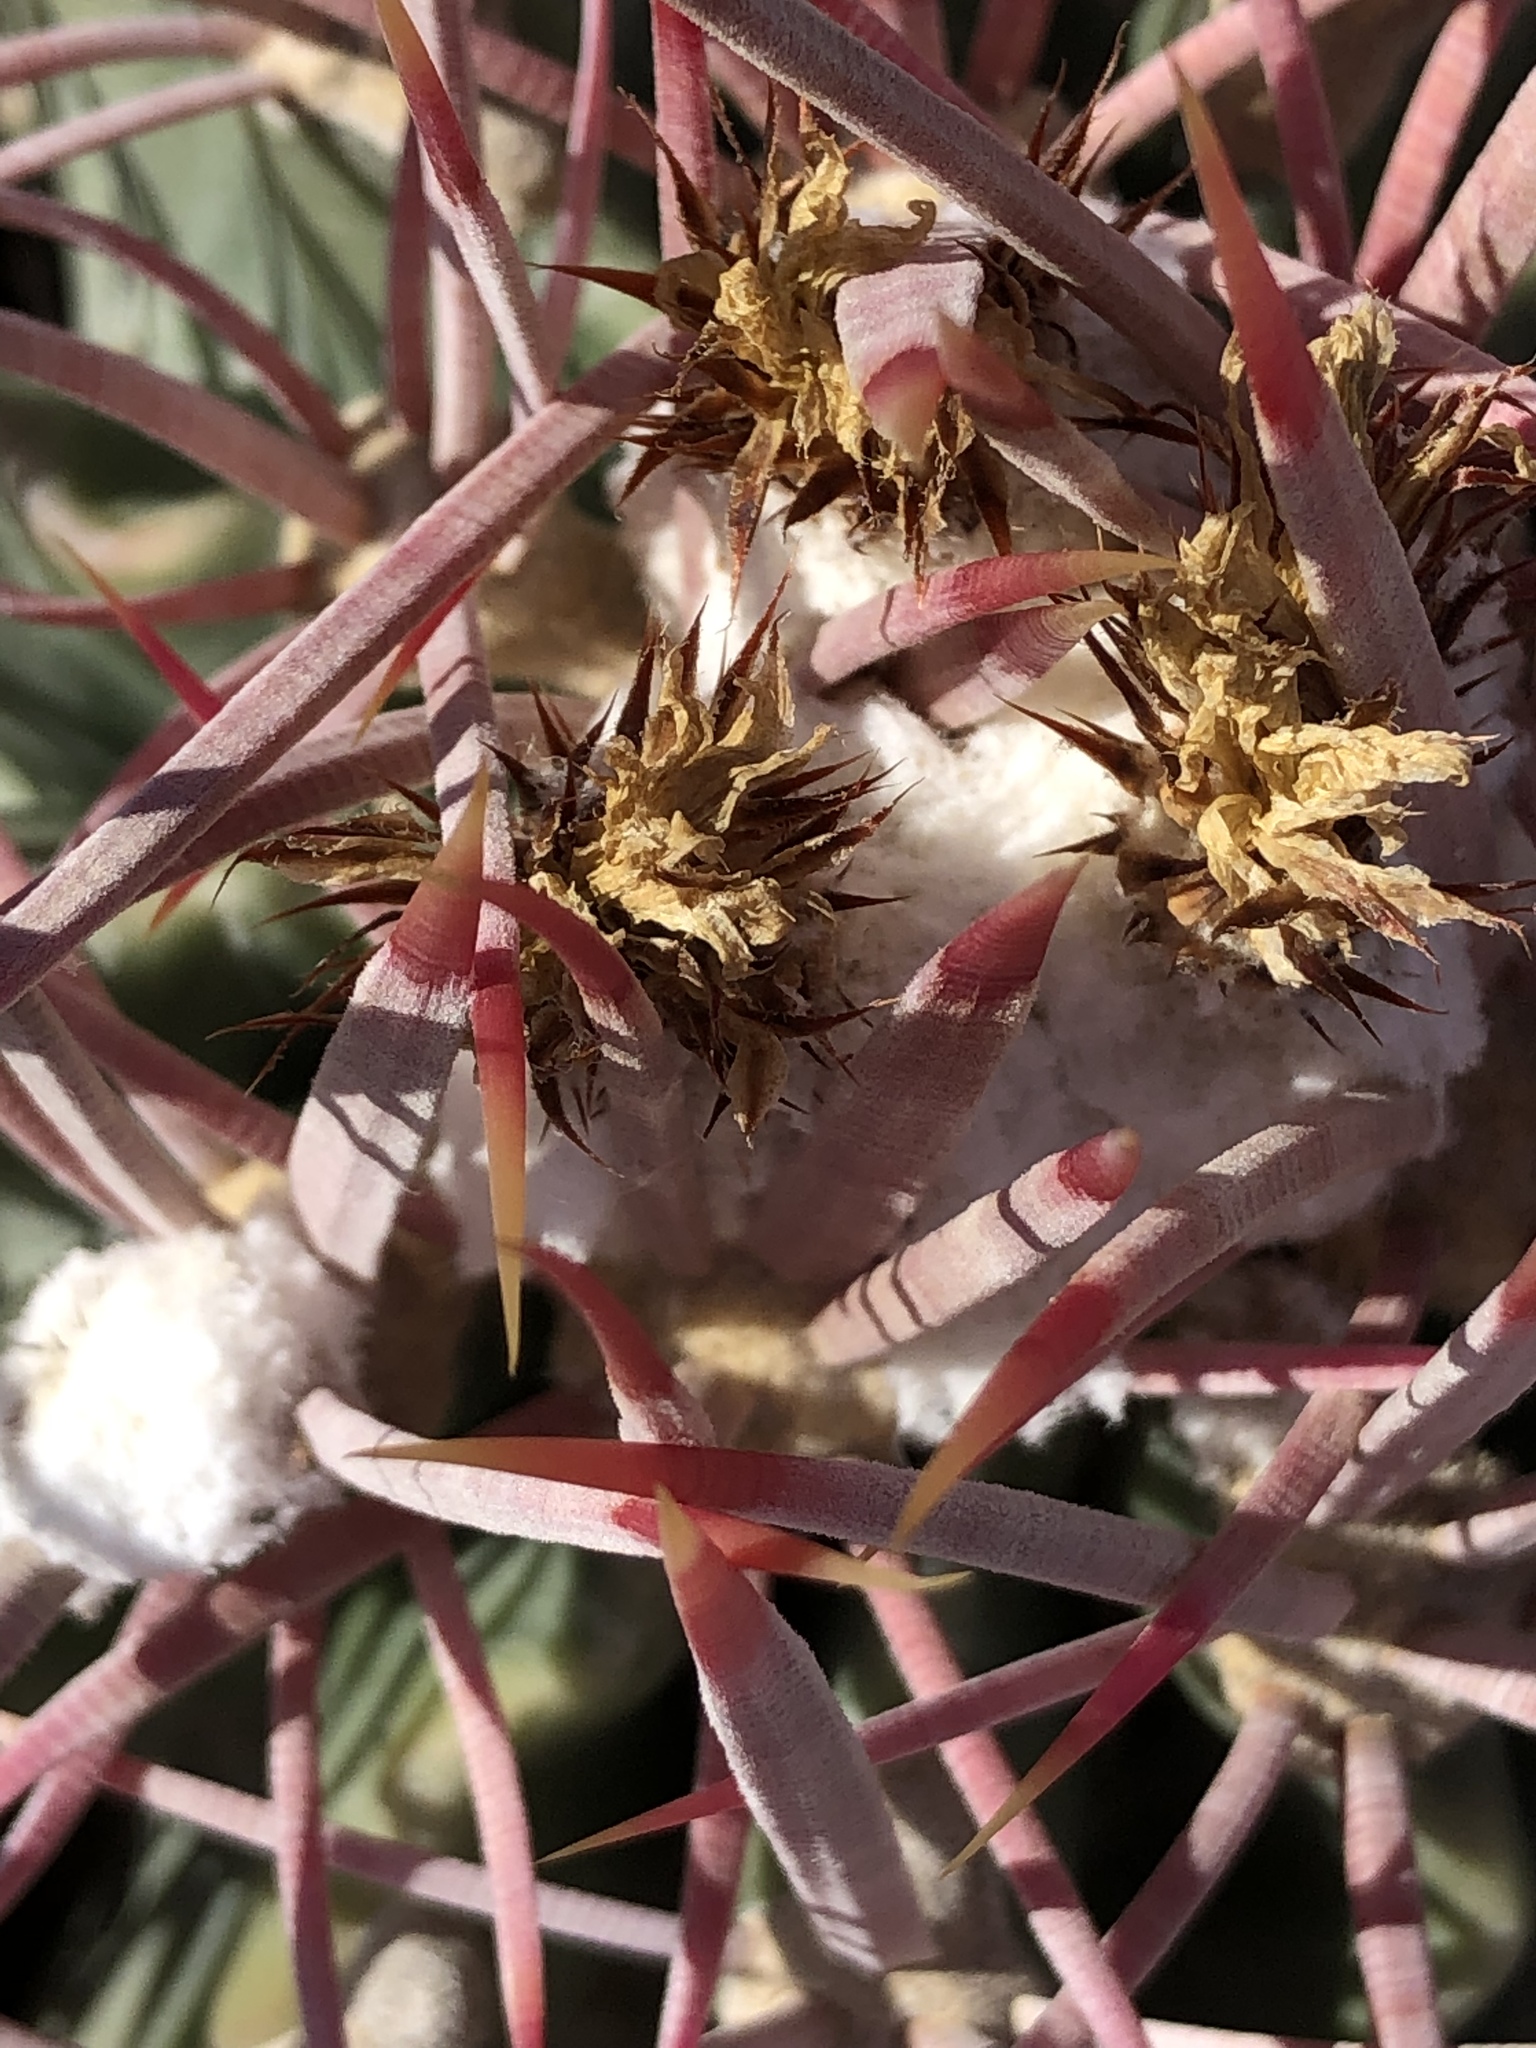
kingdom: Plantae
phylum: Tracheophyta
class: Magnoliopsida
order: Caryophyllales
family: Cactaceae
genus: Echinocactus
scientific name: Echinocactus polycephalus
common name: Cottontop cactus
